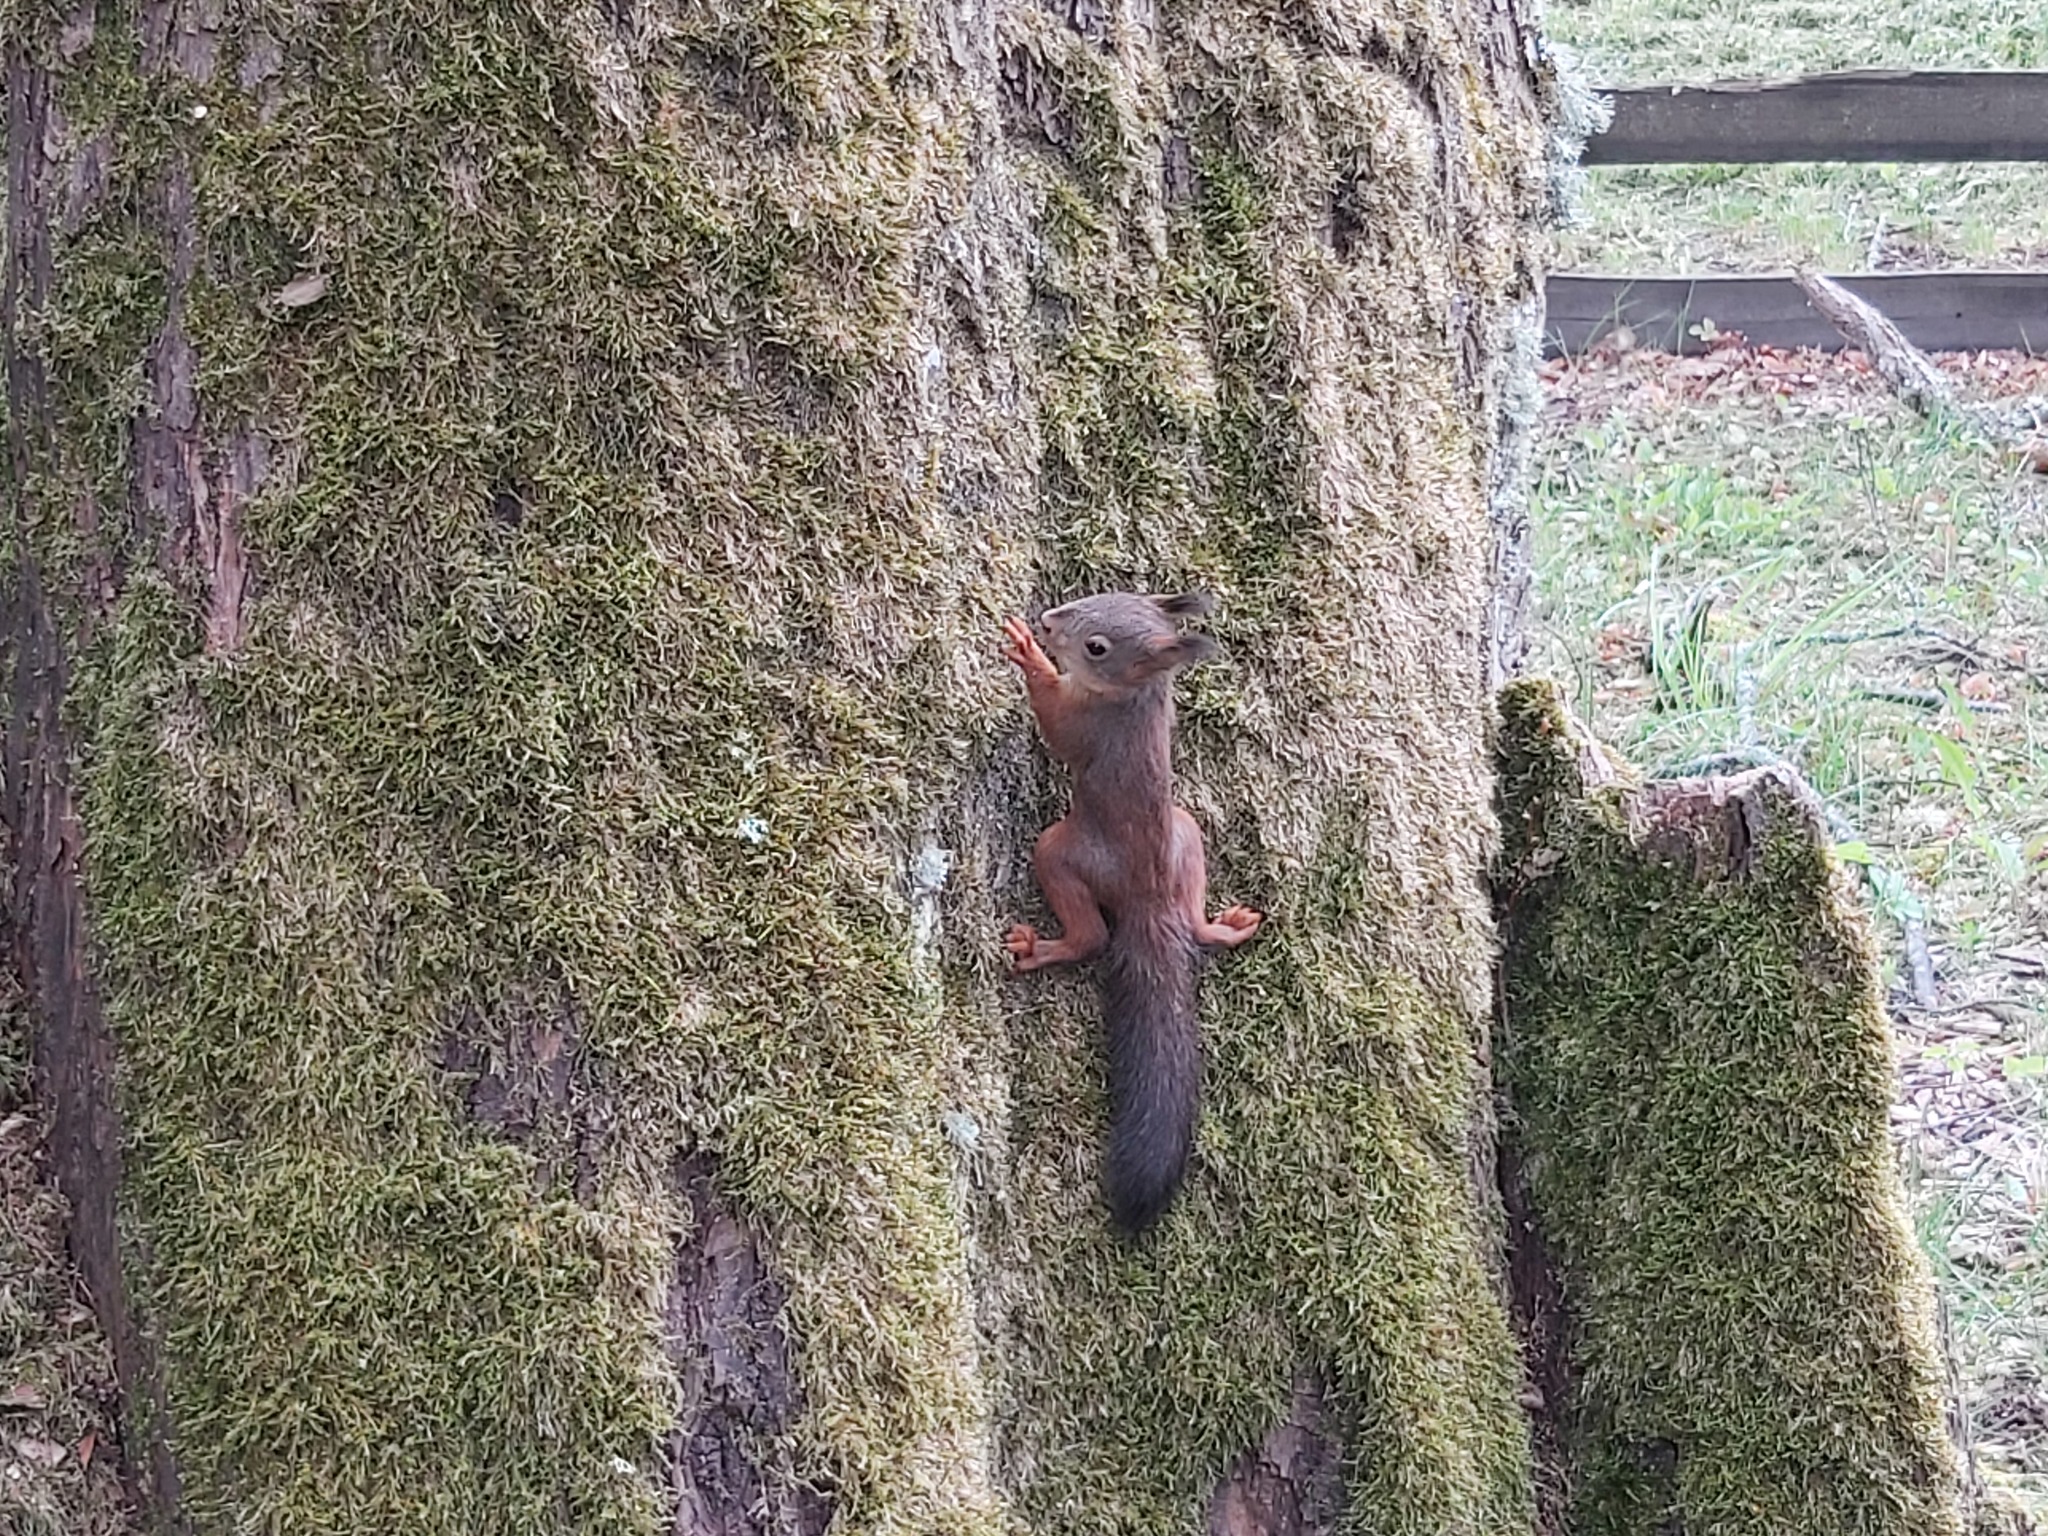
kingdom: Animalia
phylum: Chordata
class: Mammalia
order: Rodentia
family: Sciuridae
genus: Sciurus
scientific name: Sciurus vulgaris
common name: Eurasian red squirrel
